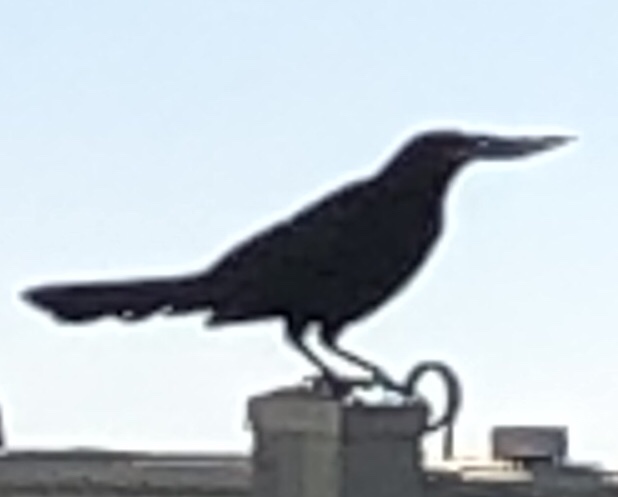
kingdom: Animalia
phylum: Chordata
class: Aves
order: Passeriformes
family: Icteridae
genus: Quiscalus
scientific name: Quiscalus major
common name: Boat-tailed grackle
